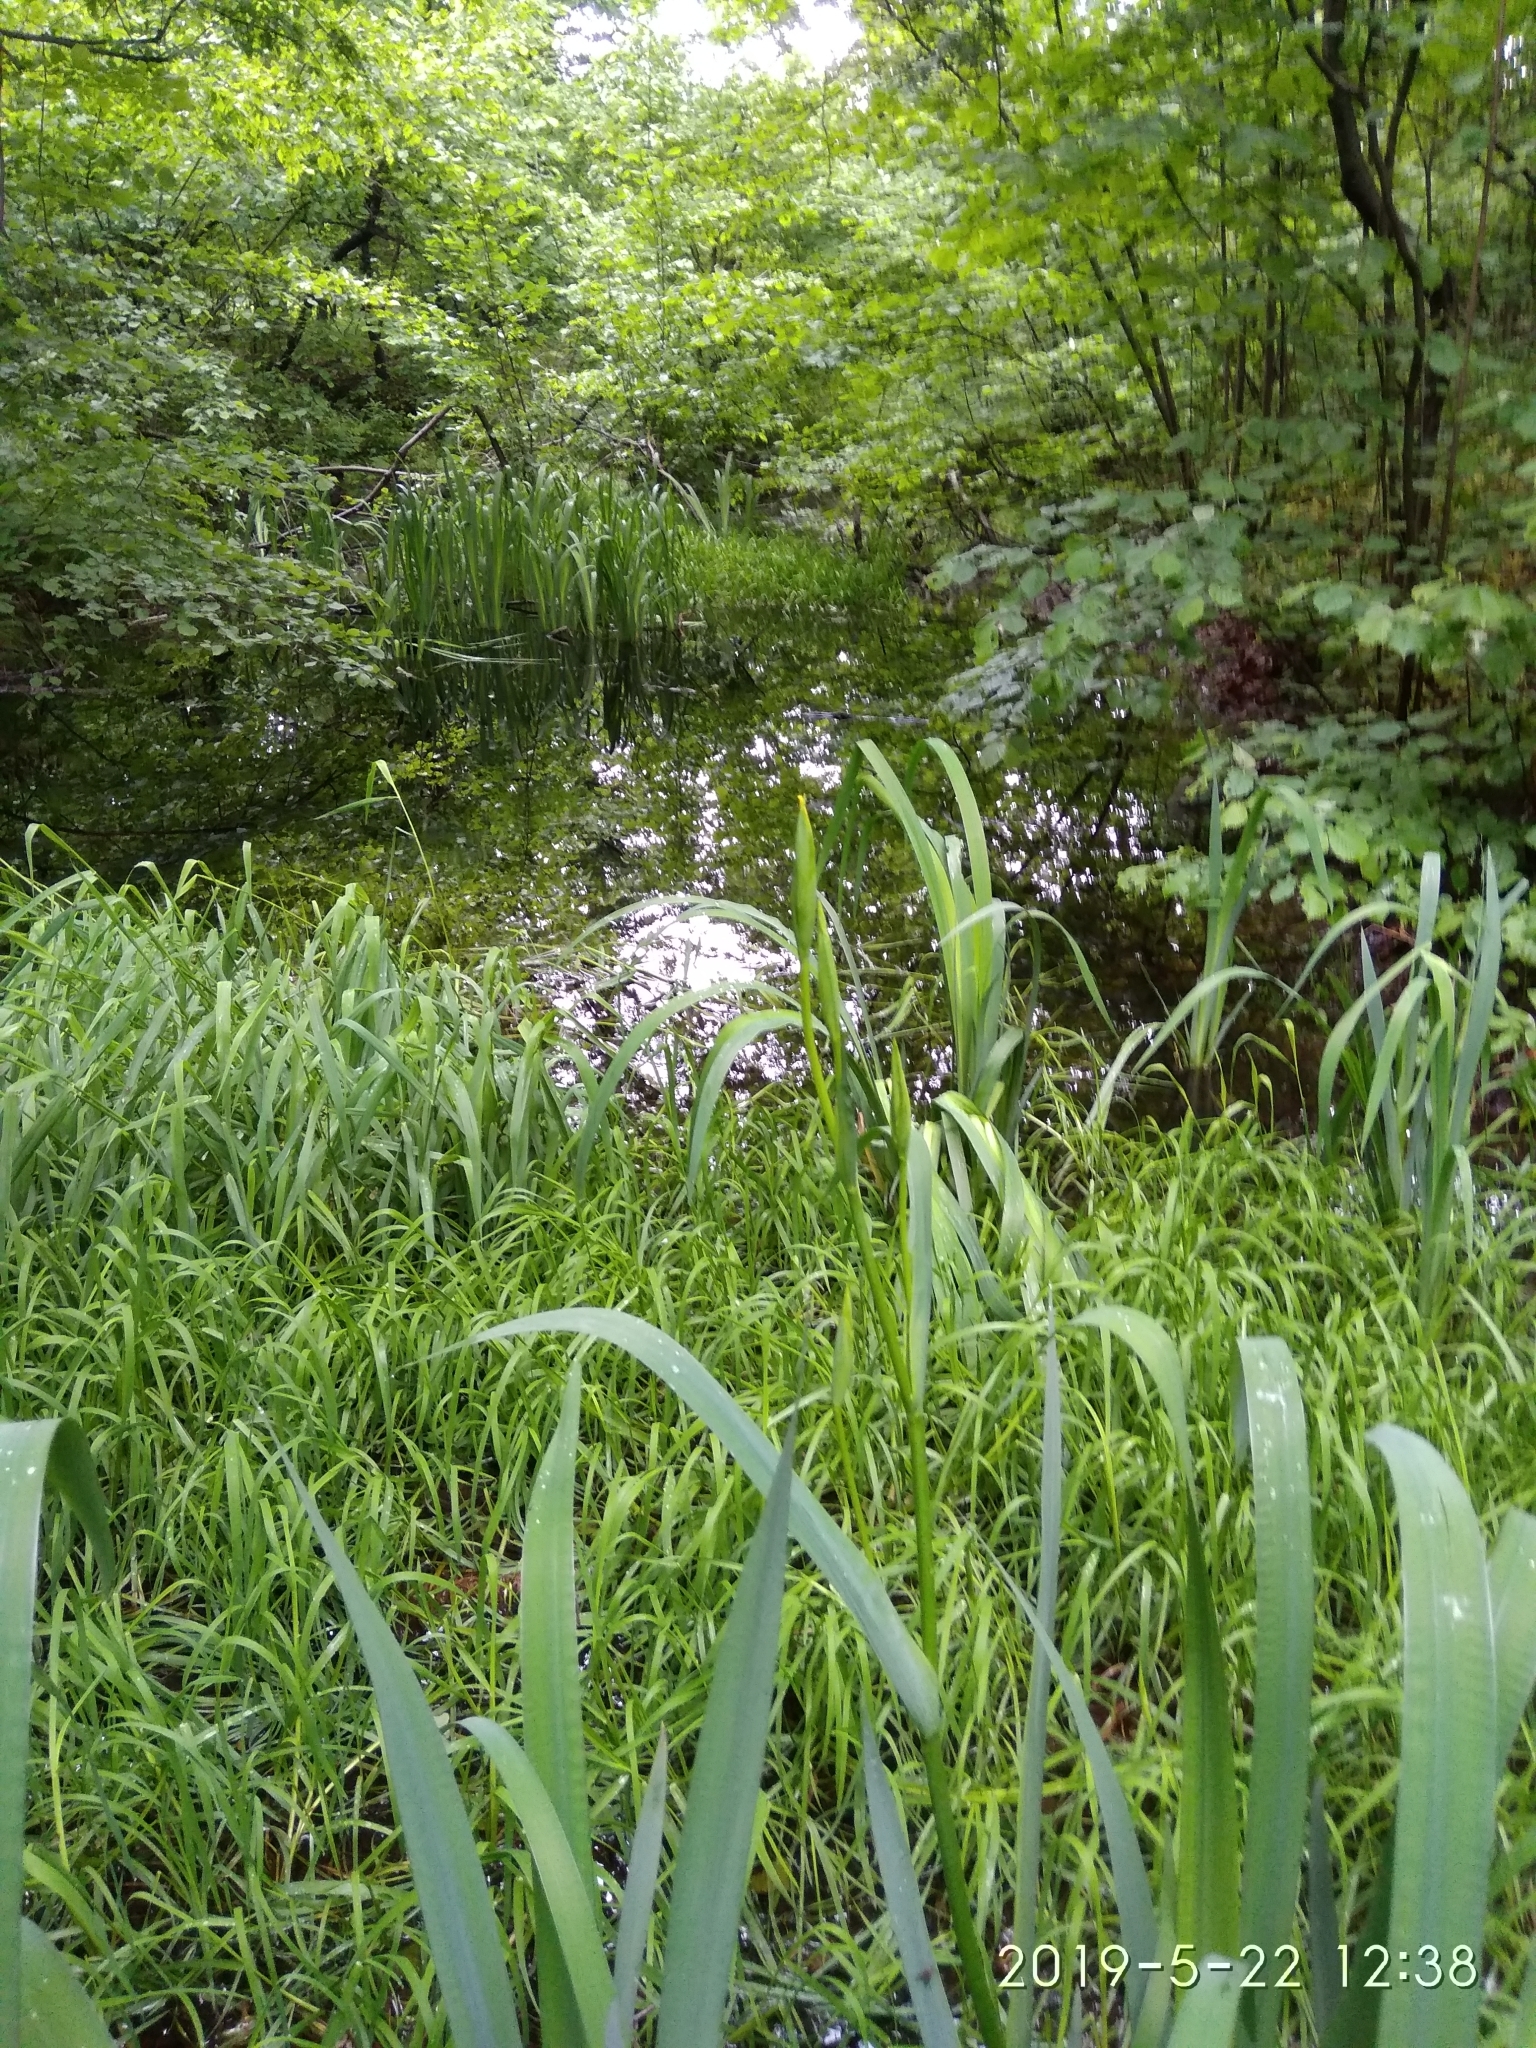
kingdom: Plantae
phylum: Tracheophyta
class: Liliopsida
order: Asparagales
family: Iridaceae
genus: Iris
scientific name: Iris pseudacorus
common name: Yellow flag
